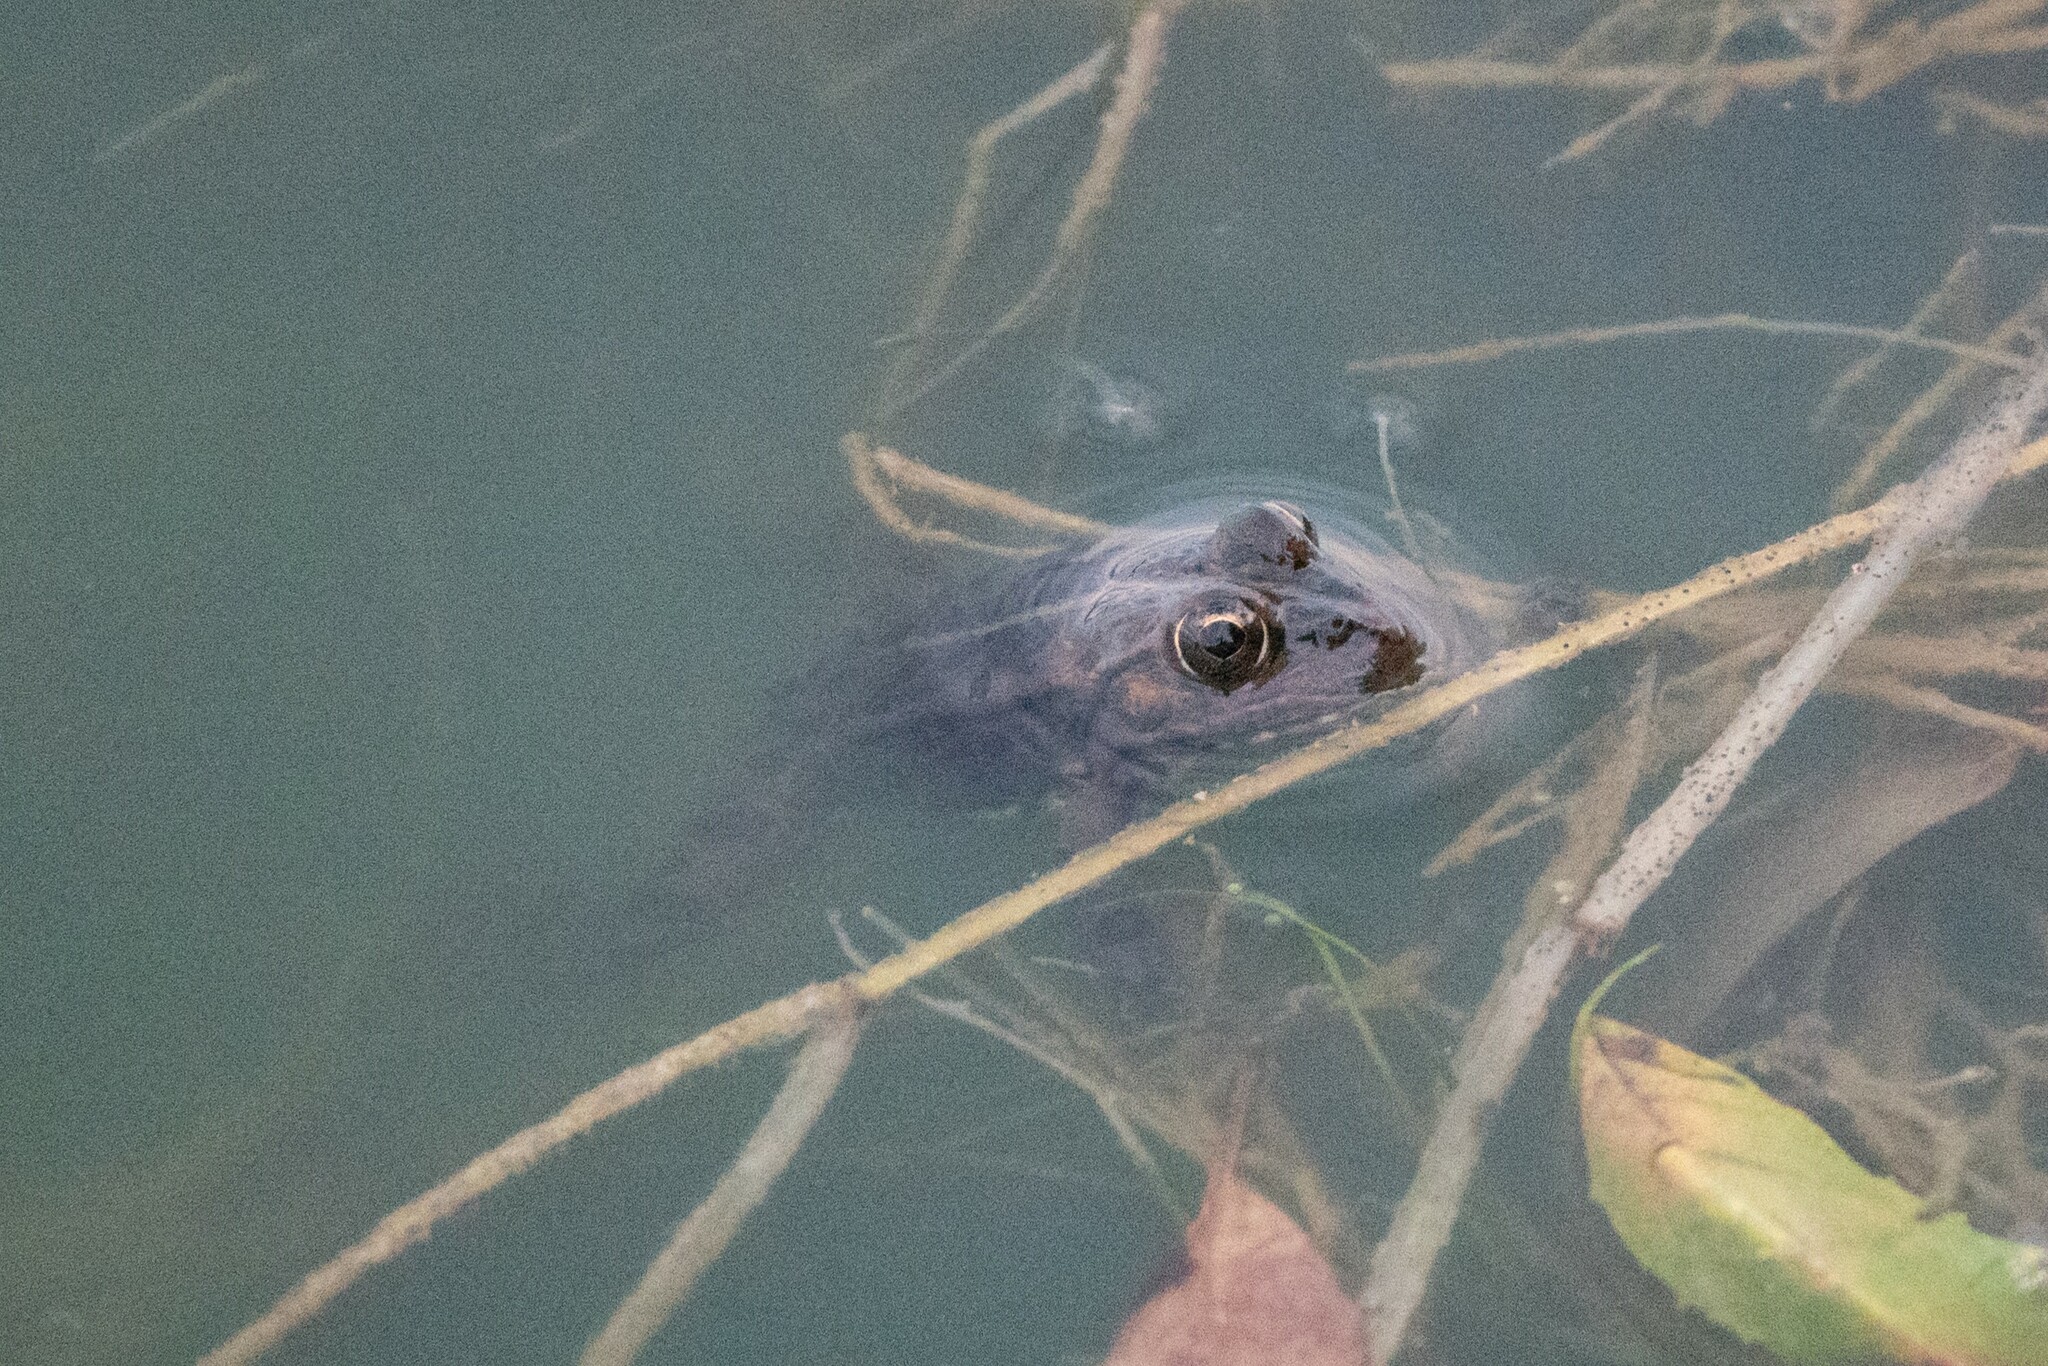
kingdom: Animalia
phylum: Chordata
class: Amphibia
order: Anura
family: Ranidae
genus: Pelophylax
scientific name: Pelophylax ridibundus
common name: Marsh frog
